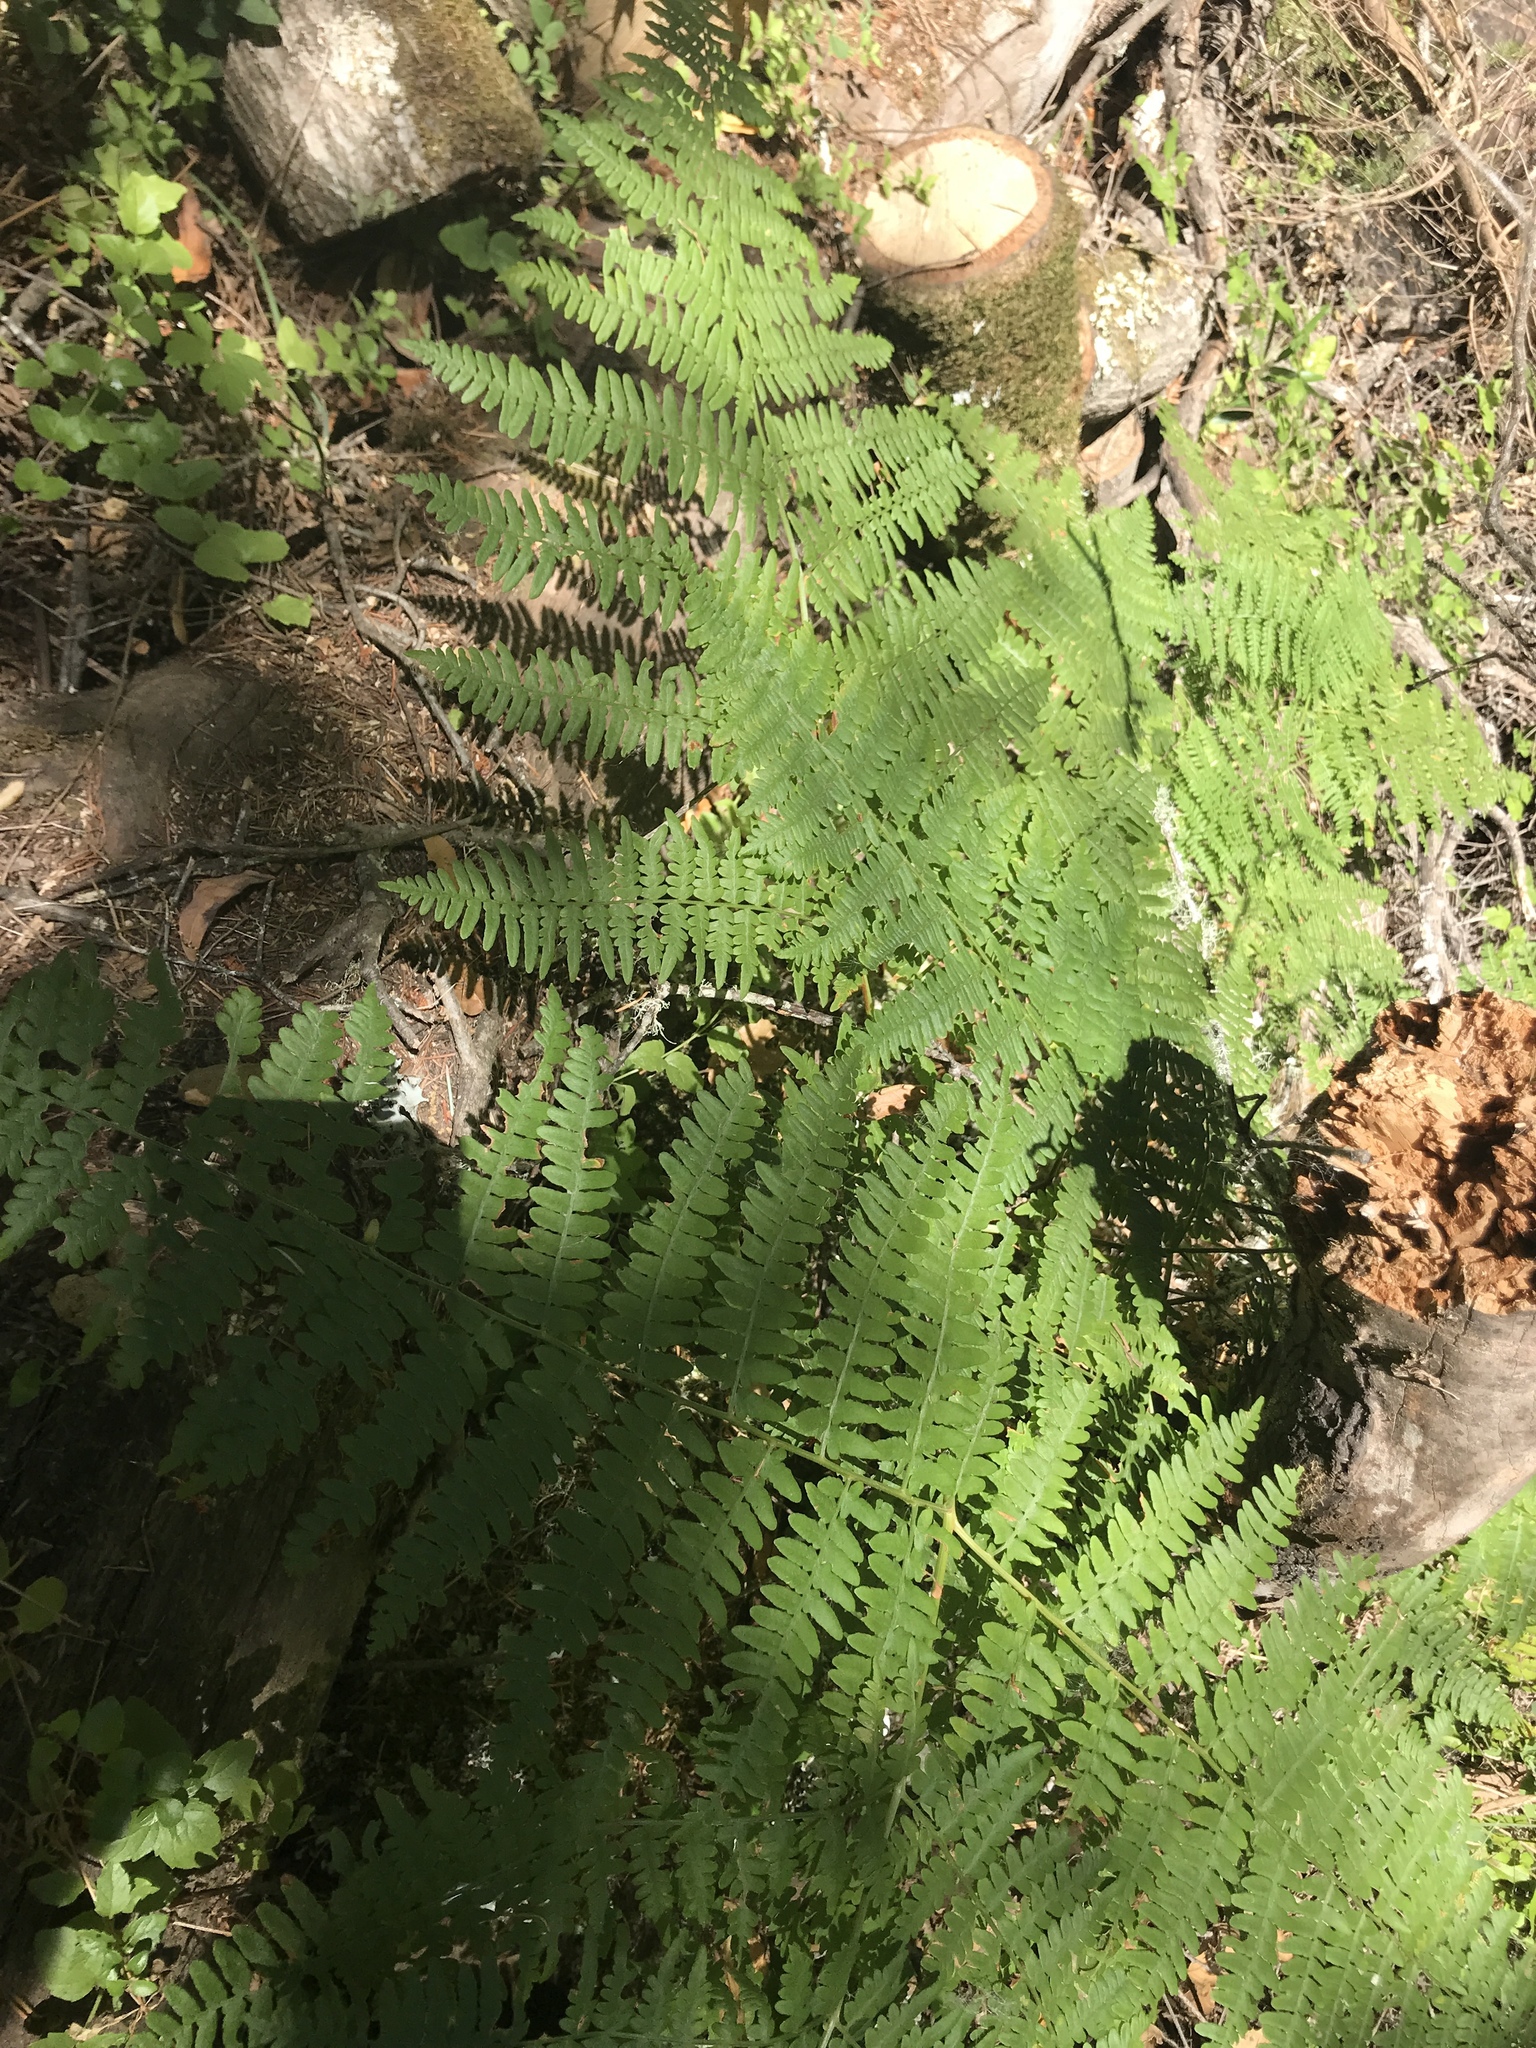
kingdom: Plantae
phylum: Tracheophyta
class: Polypodiopsida
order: Polypodiales
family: Dennstaedtiaceae
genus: Pteridium
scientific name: Pteridium aquilinum
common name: Bracken
